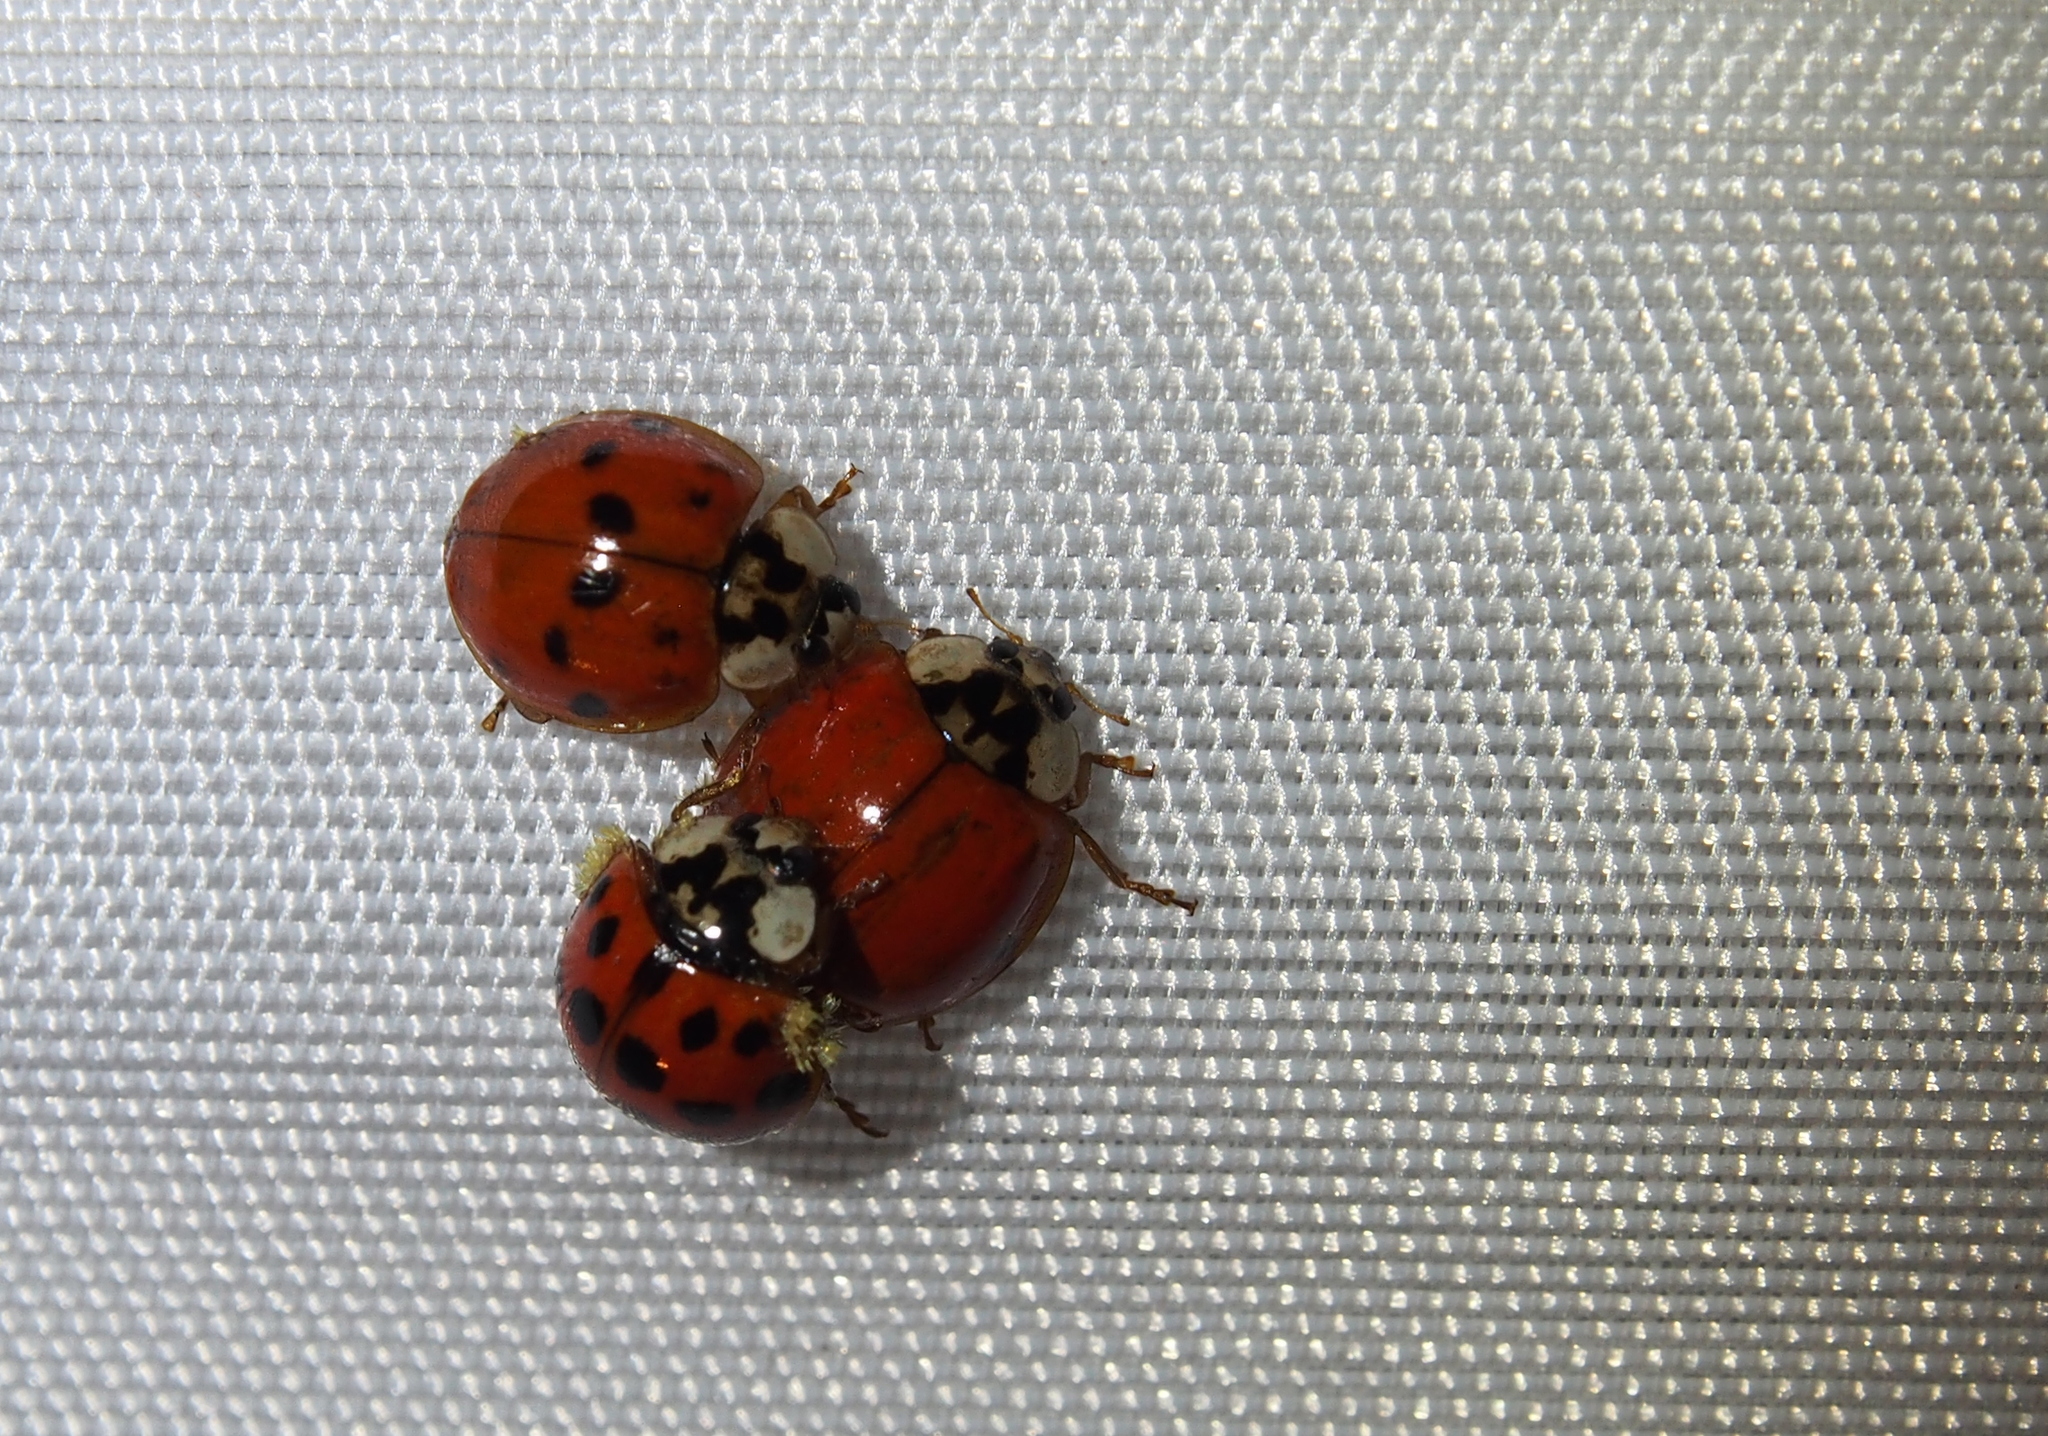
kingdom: Animalia
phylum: Arthropoda
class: Insecta
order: Coleoptera
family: Coccinellidae
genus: Harmonia
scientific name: Harmonia axyridis
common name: Harlequin ladybird
